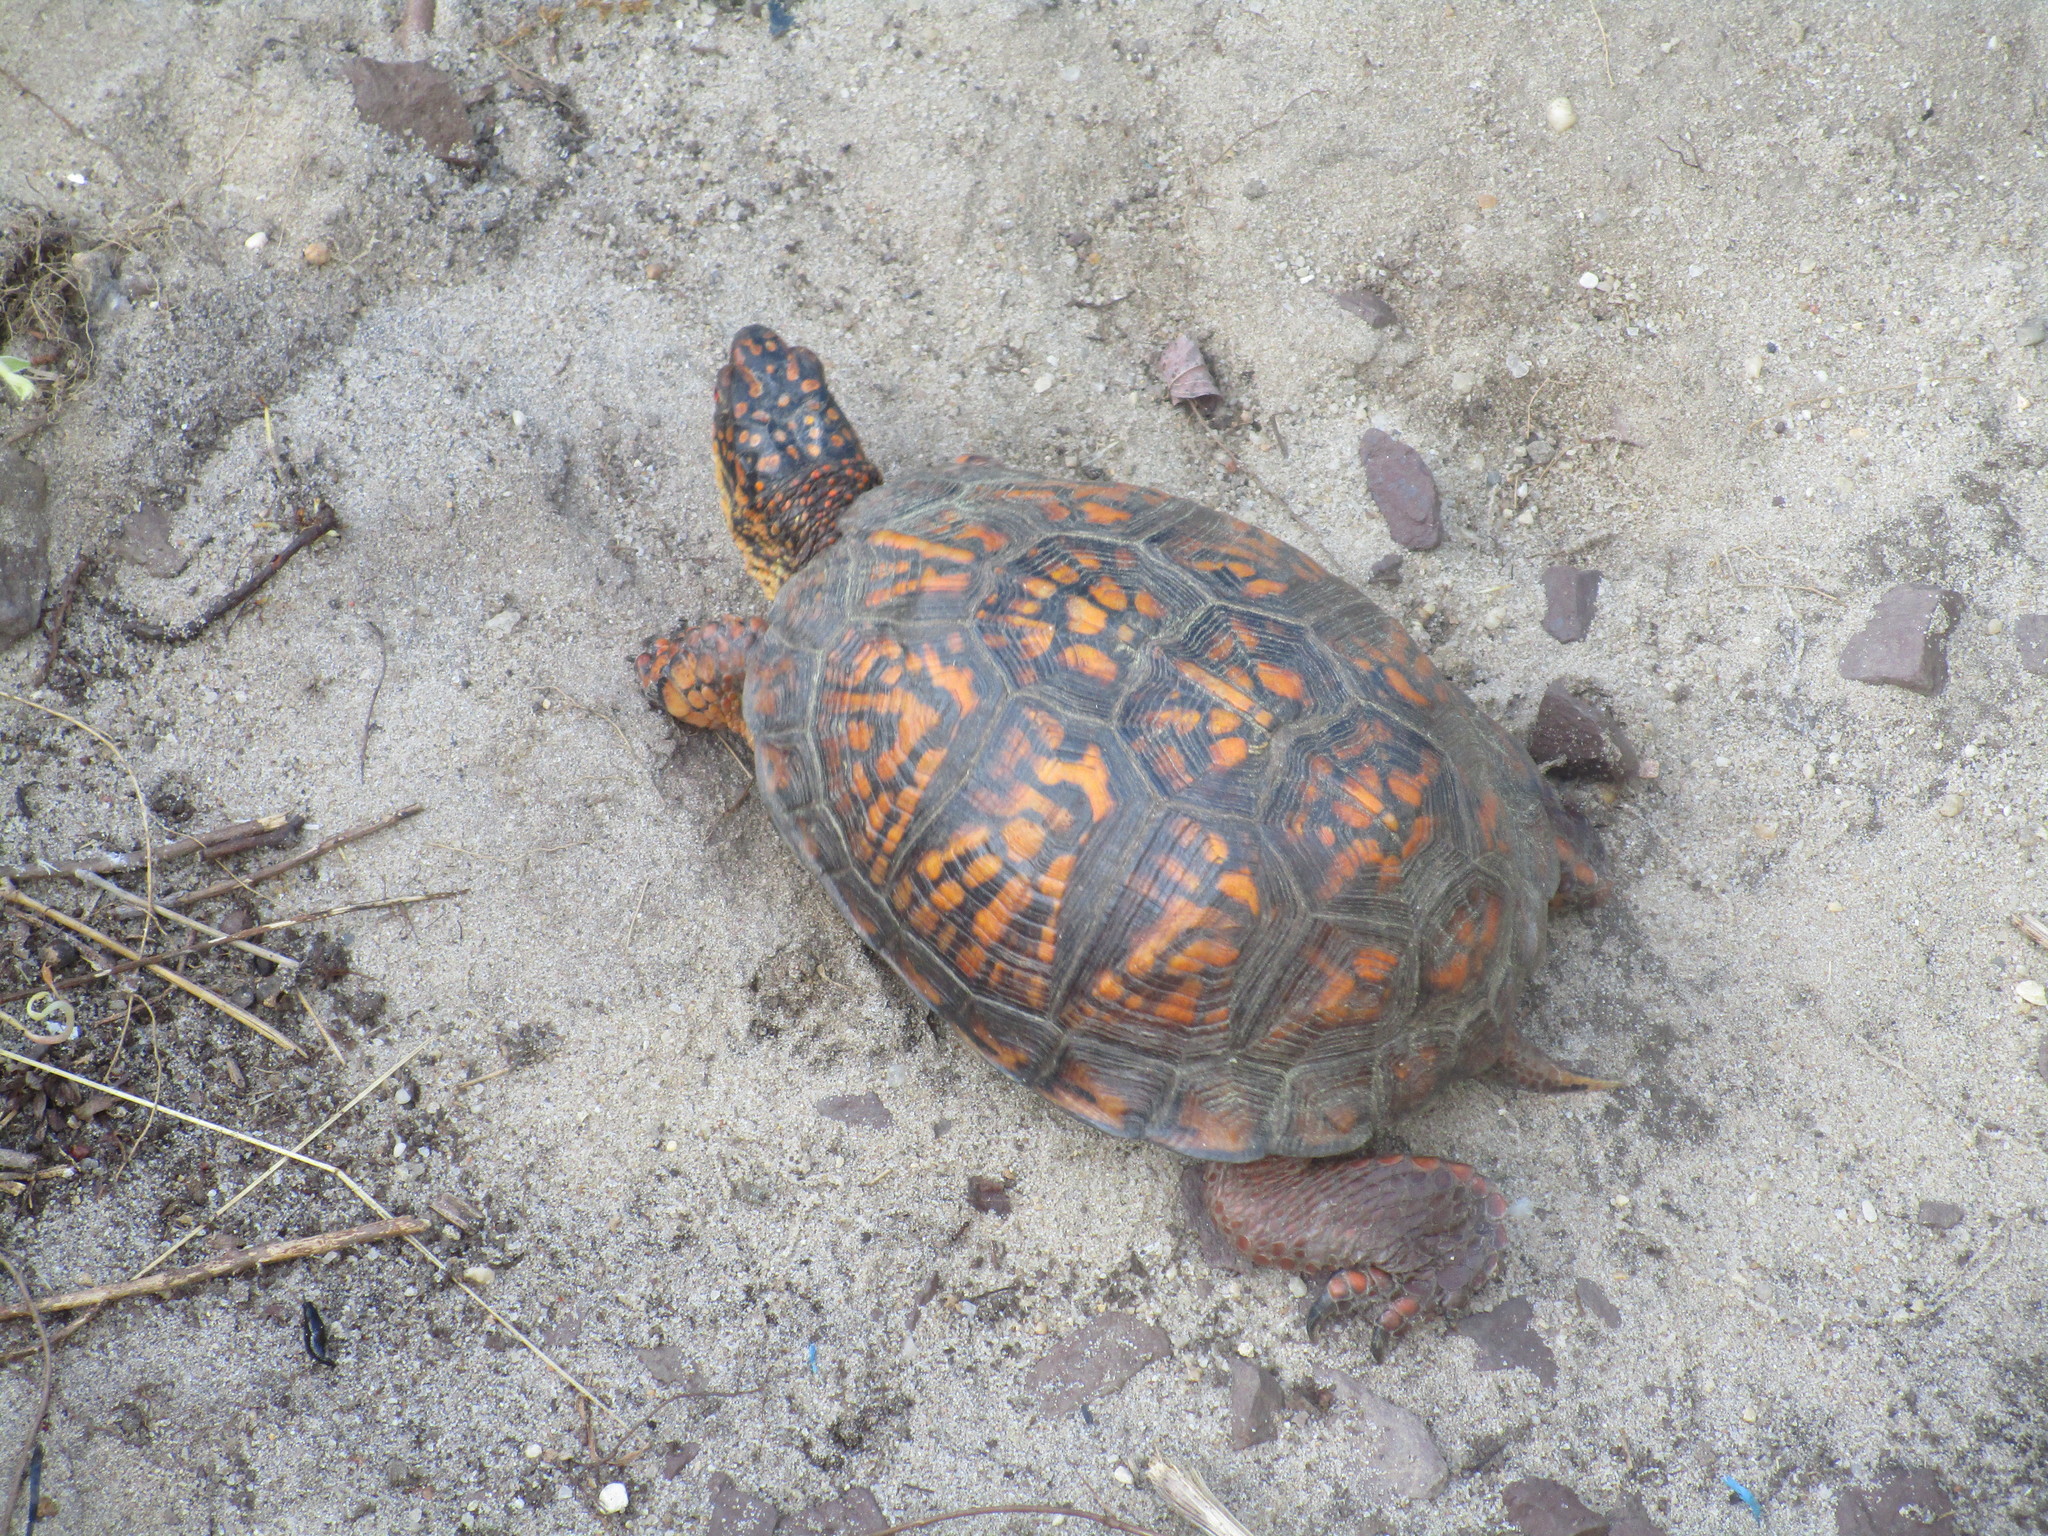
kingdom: Animalia
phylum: Chordata
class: Testudines
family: Emydidae
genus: Terrapene
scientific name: Terrapene carolina
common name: Common box turtle
